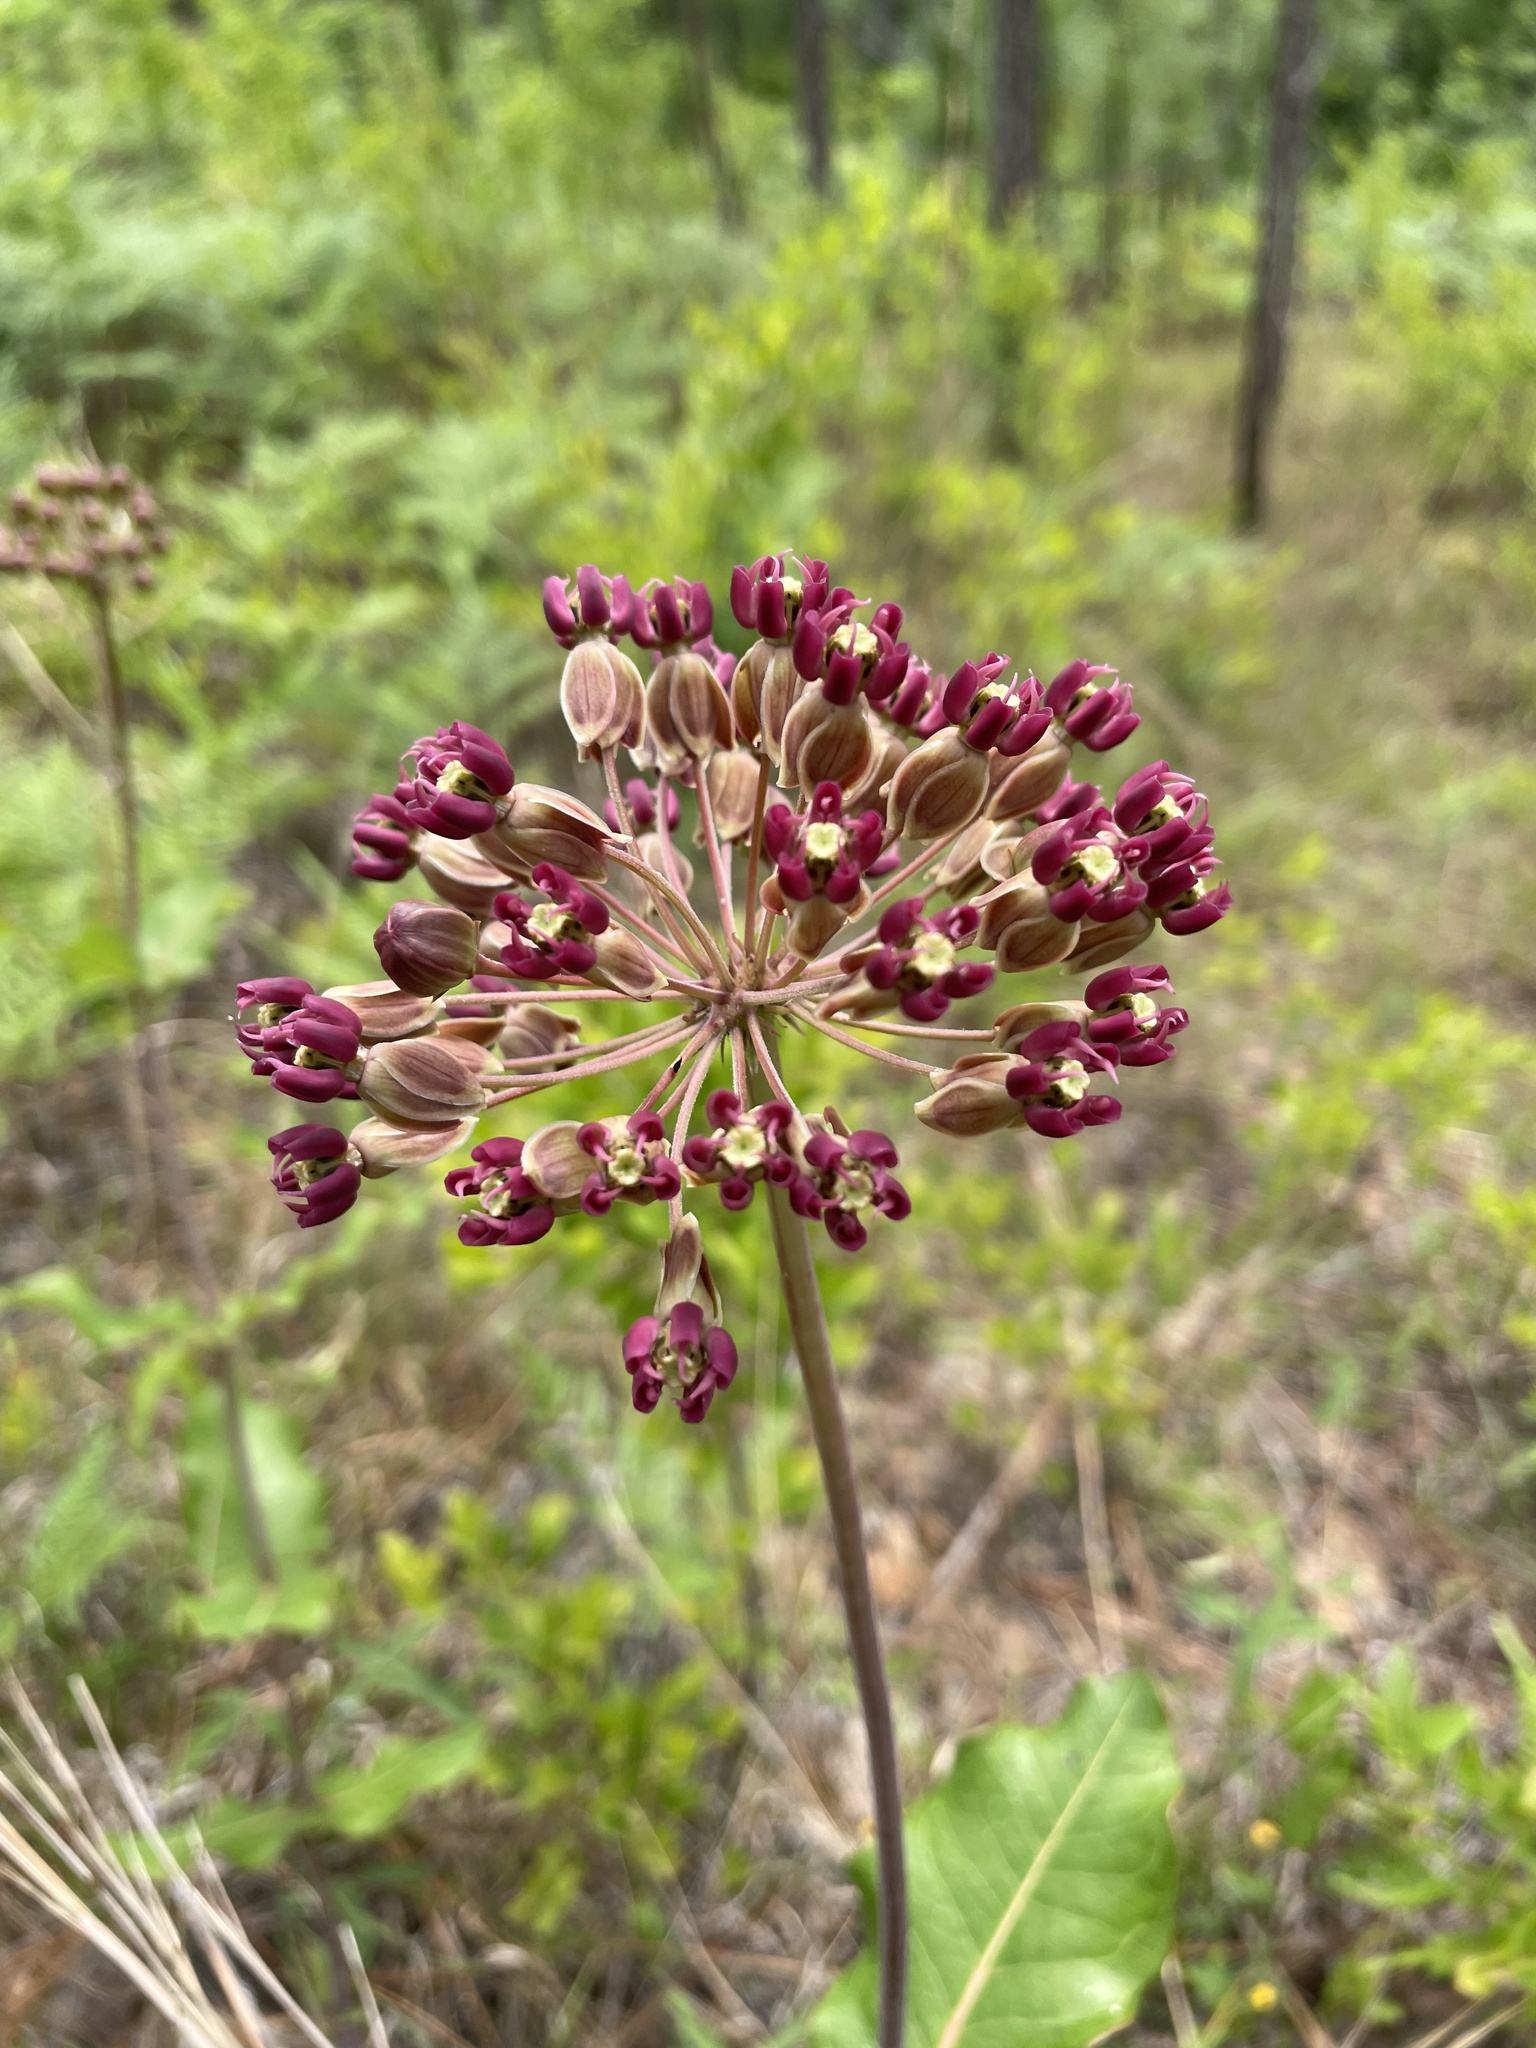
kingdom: Plantae
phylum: Tracheophyta
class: Magnoliopsida
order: Gentianales
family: Apocynaceae
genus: Asclepias
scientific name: Asclepias amplexicaulis
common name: Blunt-leaf milkweed
